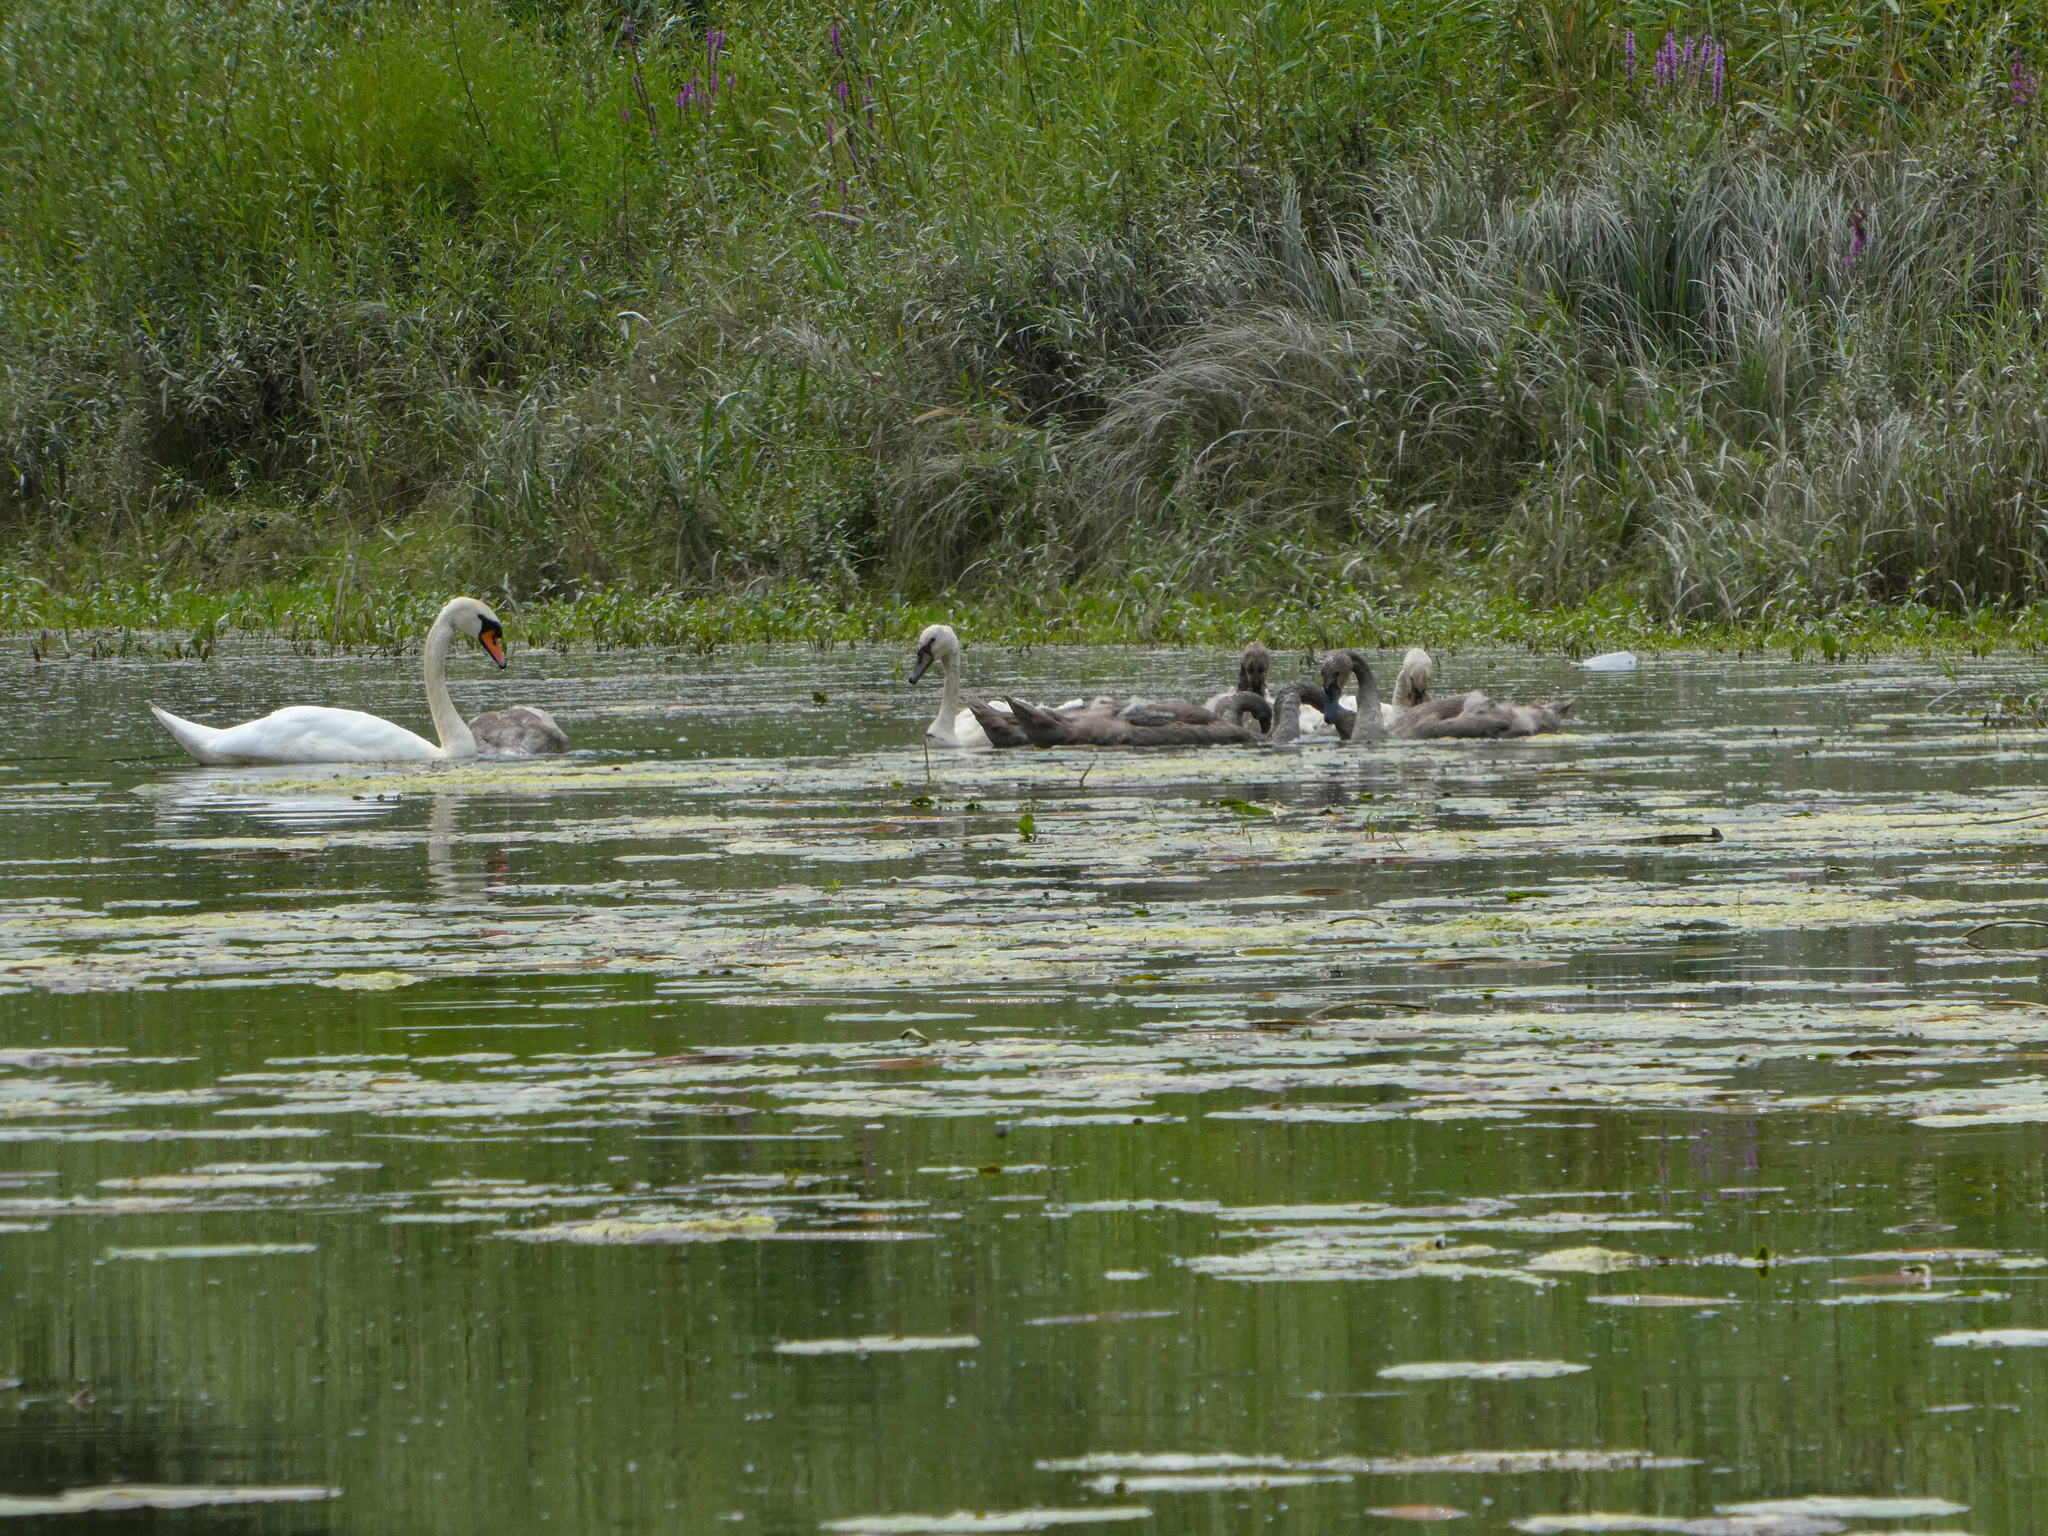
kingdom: Animalia
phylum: Chordata
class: Aves
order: Anseriformes
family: Anatidae
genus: Cygnus
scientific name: Cygnus olor
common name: Mute swan
